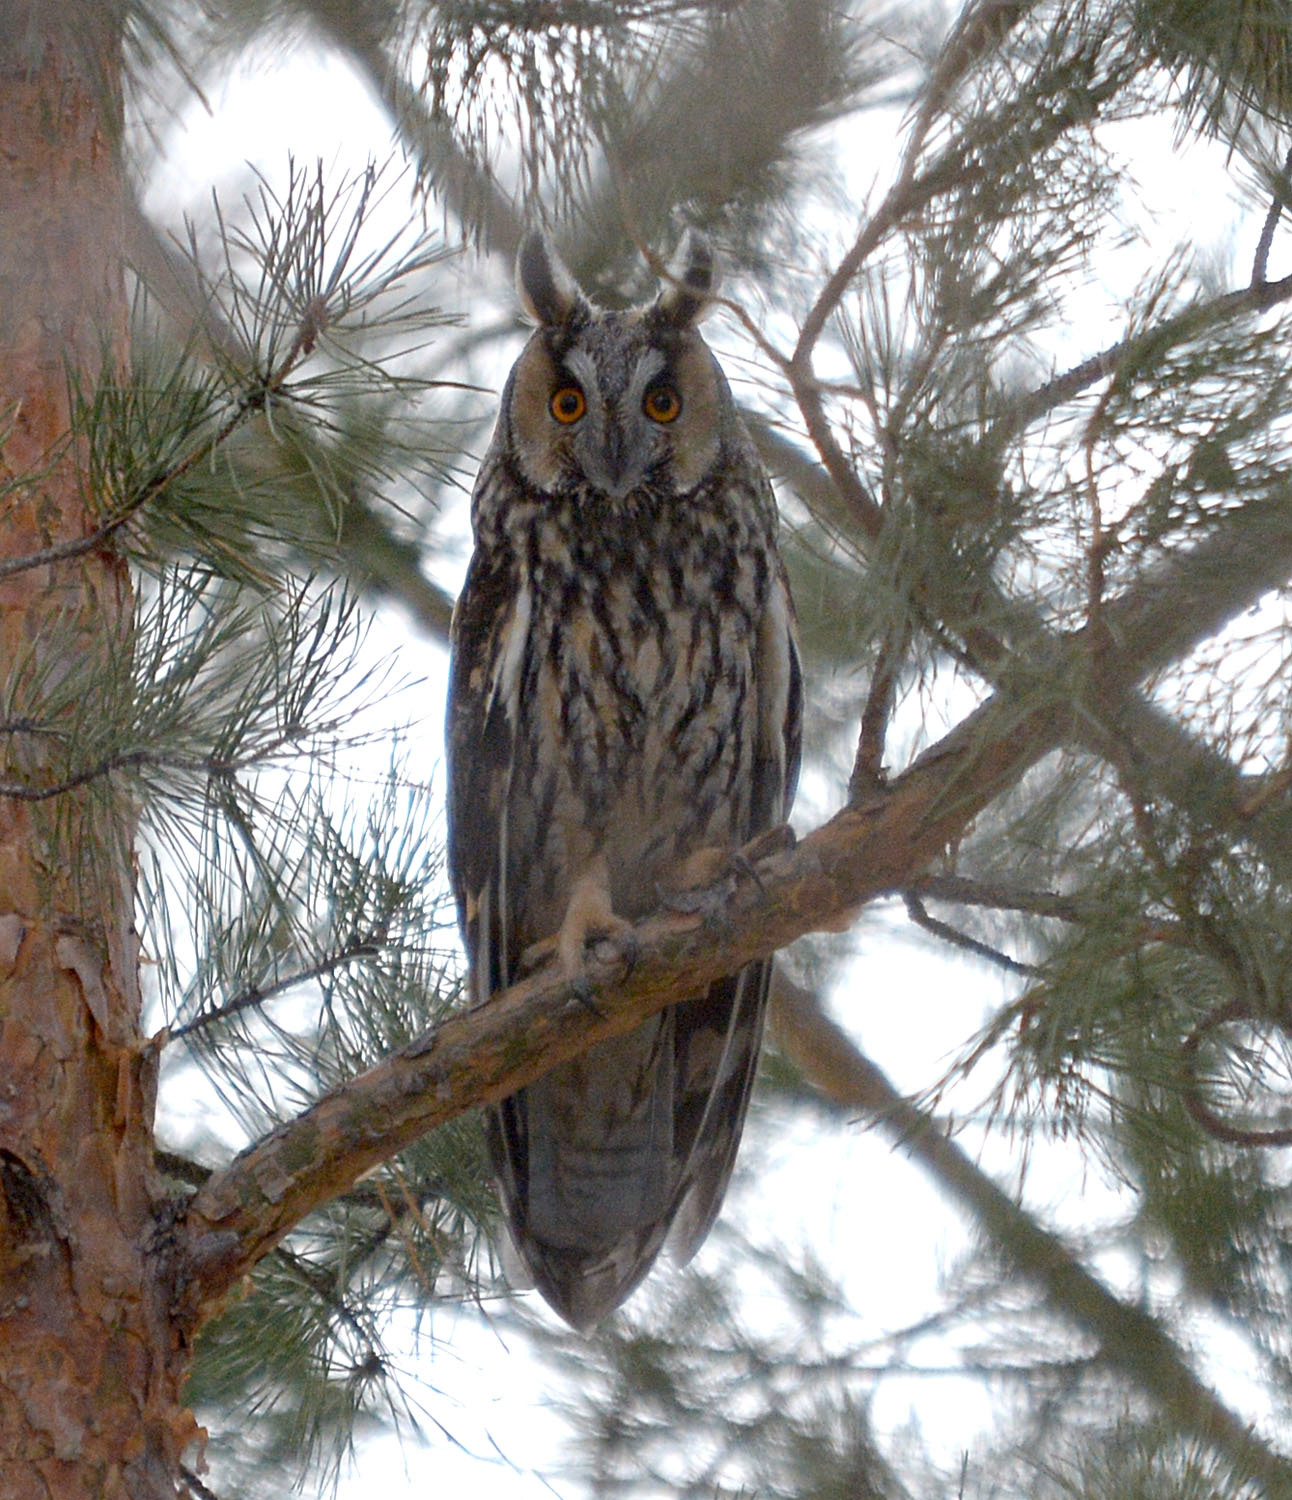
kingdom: Animalia
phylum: Chordata
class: Aves
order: Strigiformes
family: Strigidae
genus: Asio
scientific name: Asio otus
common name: Long-eared owl
